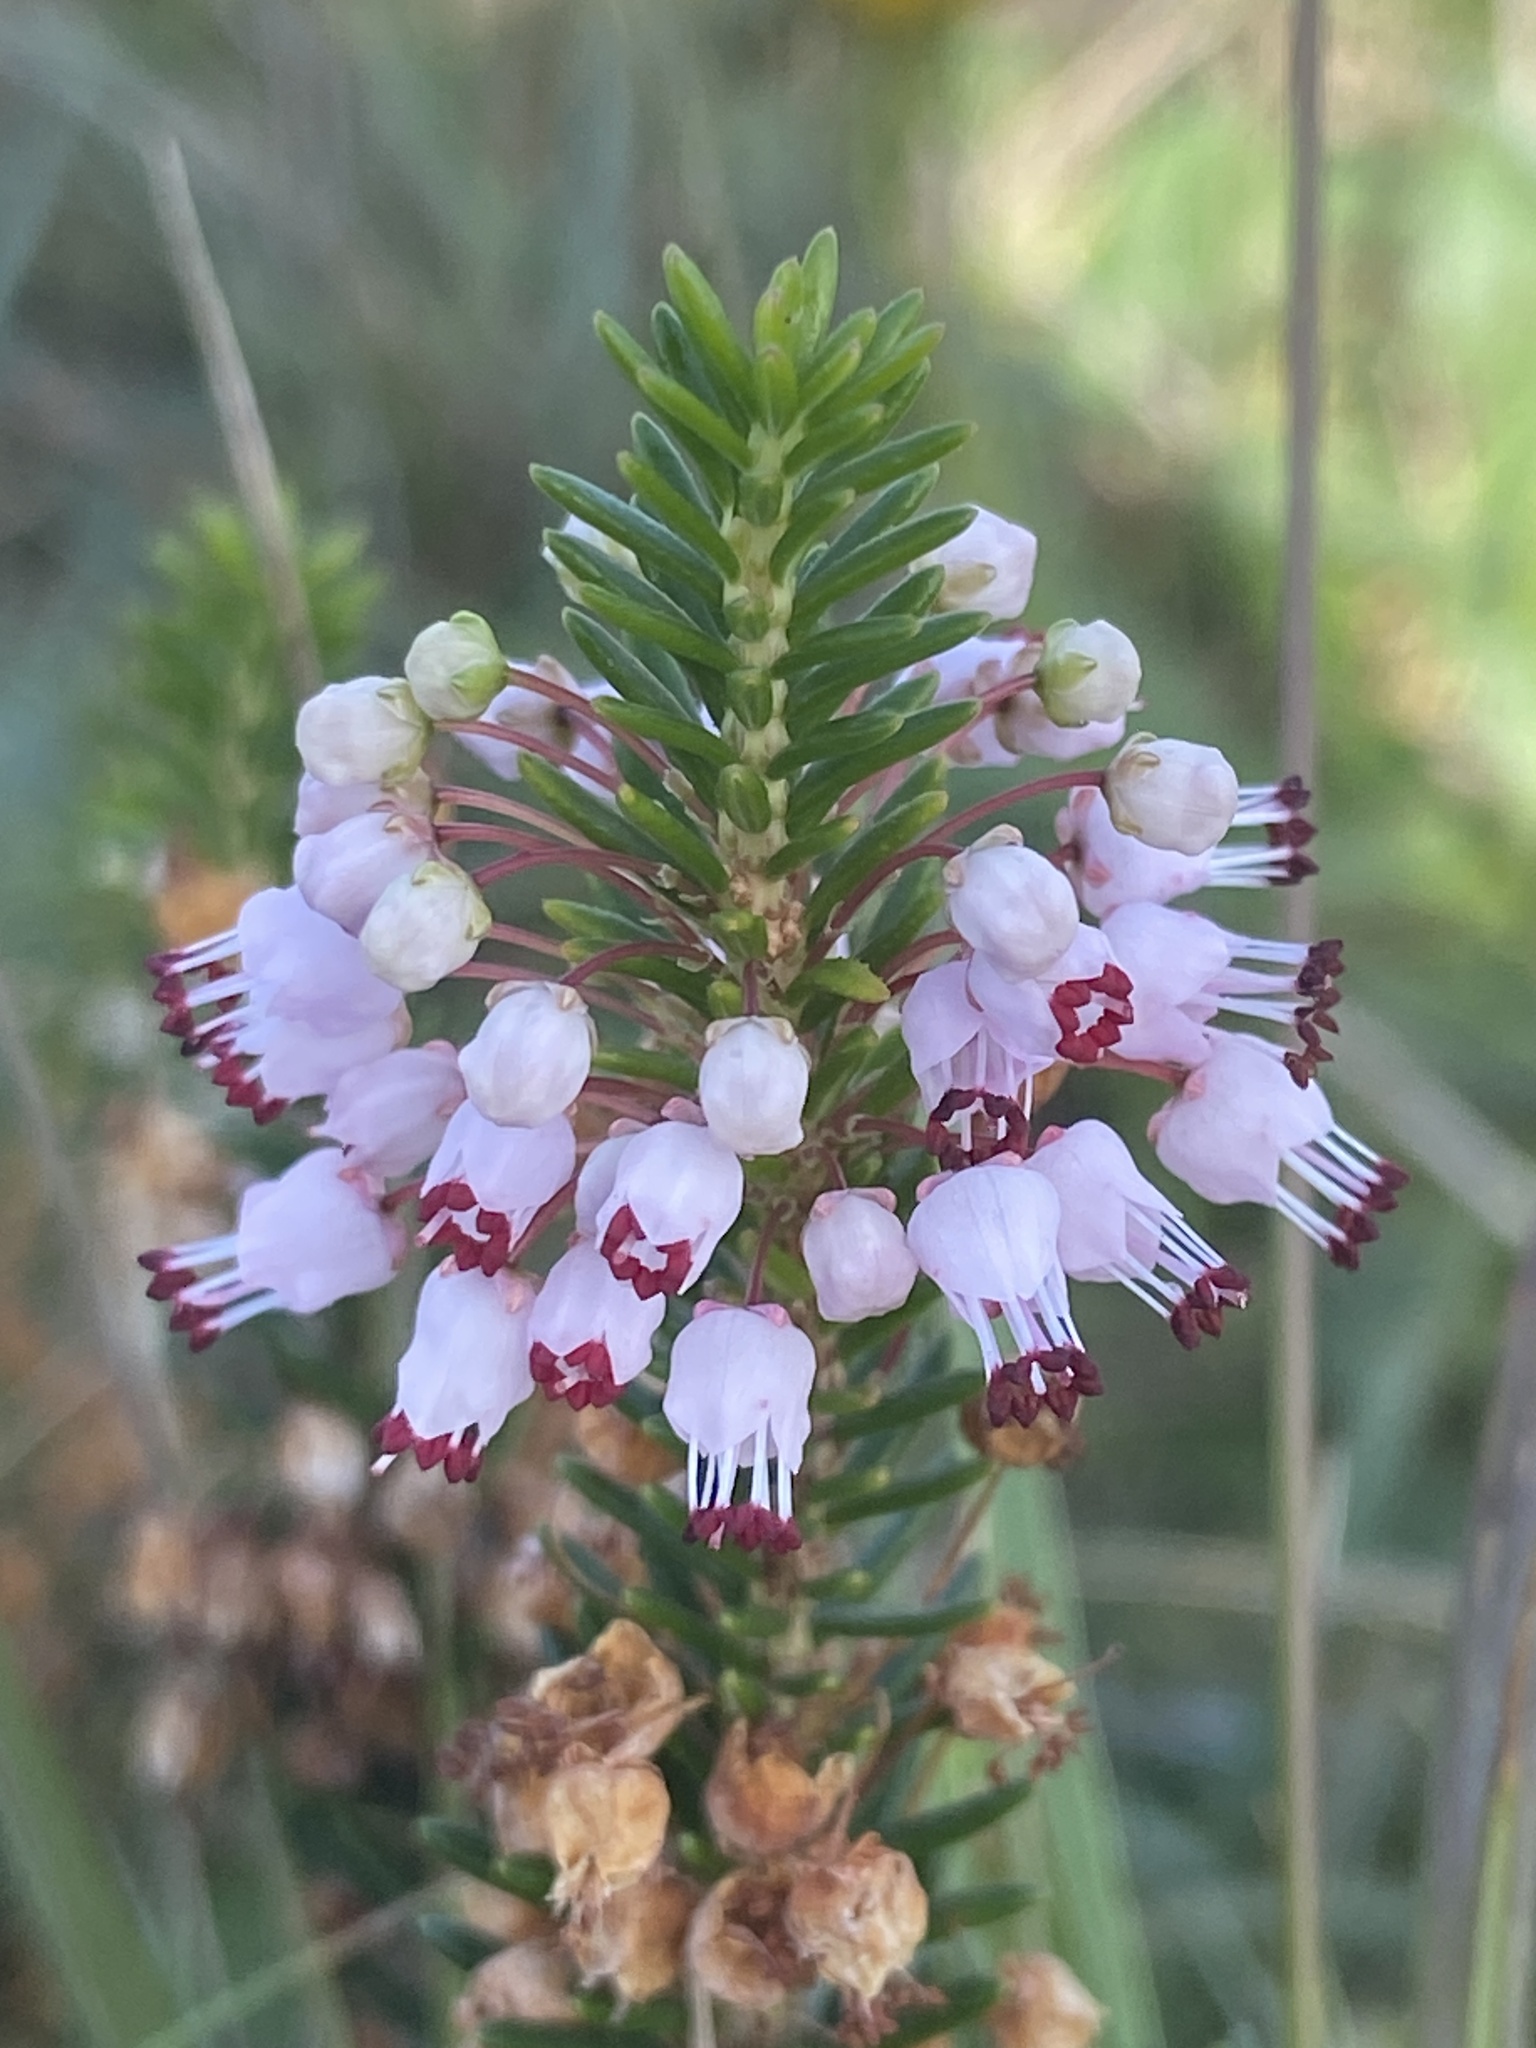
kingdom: Plantae
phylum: Tracheophyta
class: Magnoliopsida
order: Ericales
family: Ericaceae
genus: Erica
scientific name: Erica vagans
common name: Cornish heath
